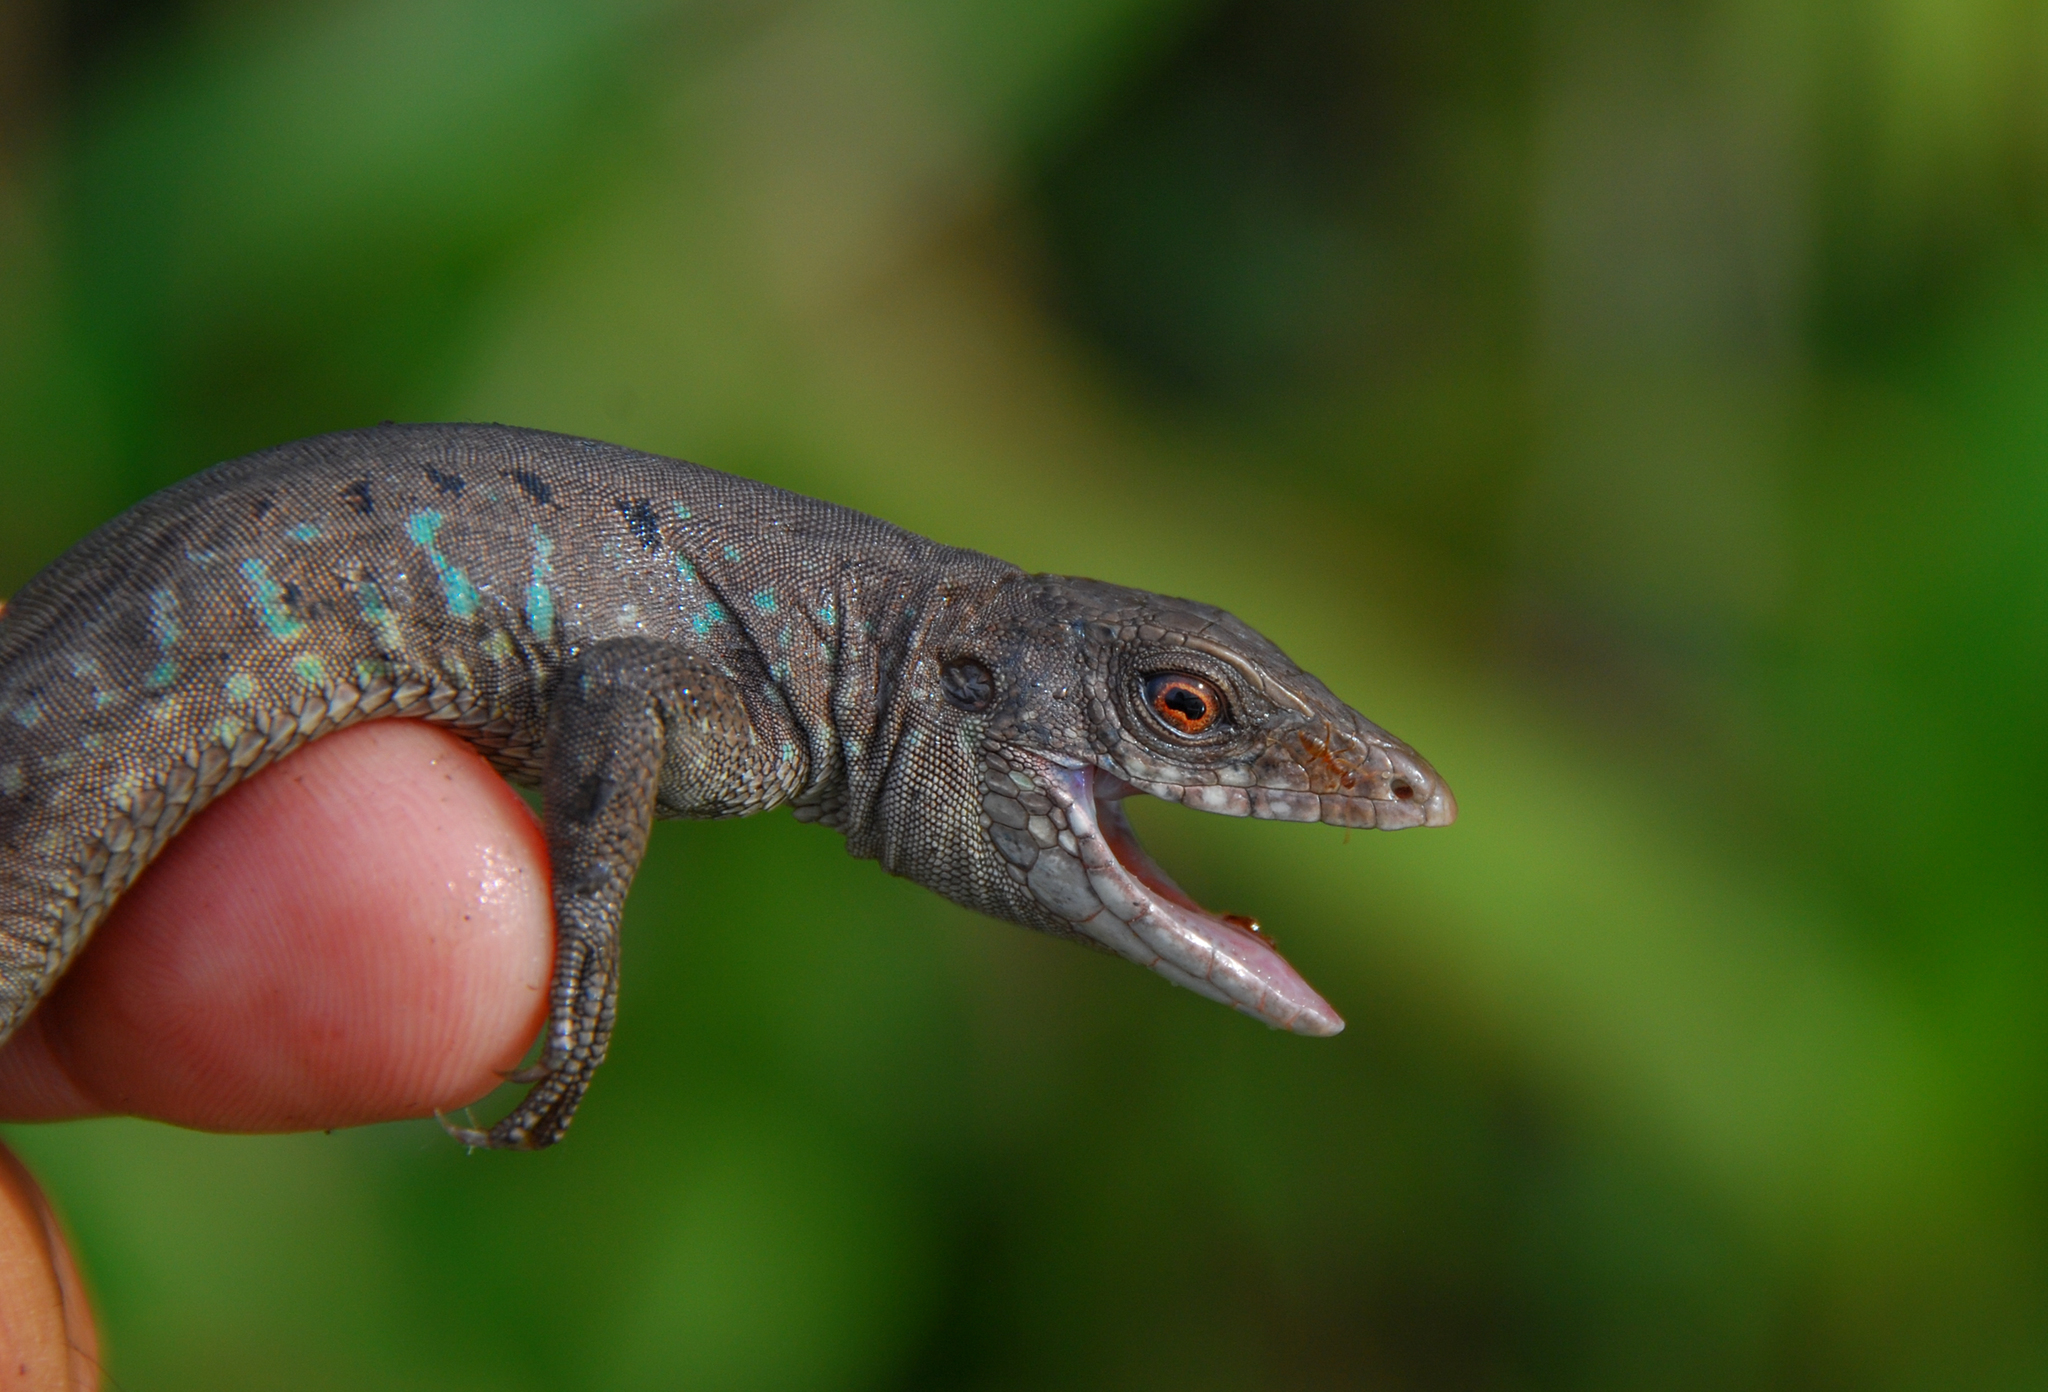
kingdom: Animalia
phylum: Chordata
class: Squamata
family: Teiidae
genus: Kentropyx
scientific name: Kentropyx altamazonica
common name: Cocha whiptail
